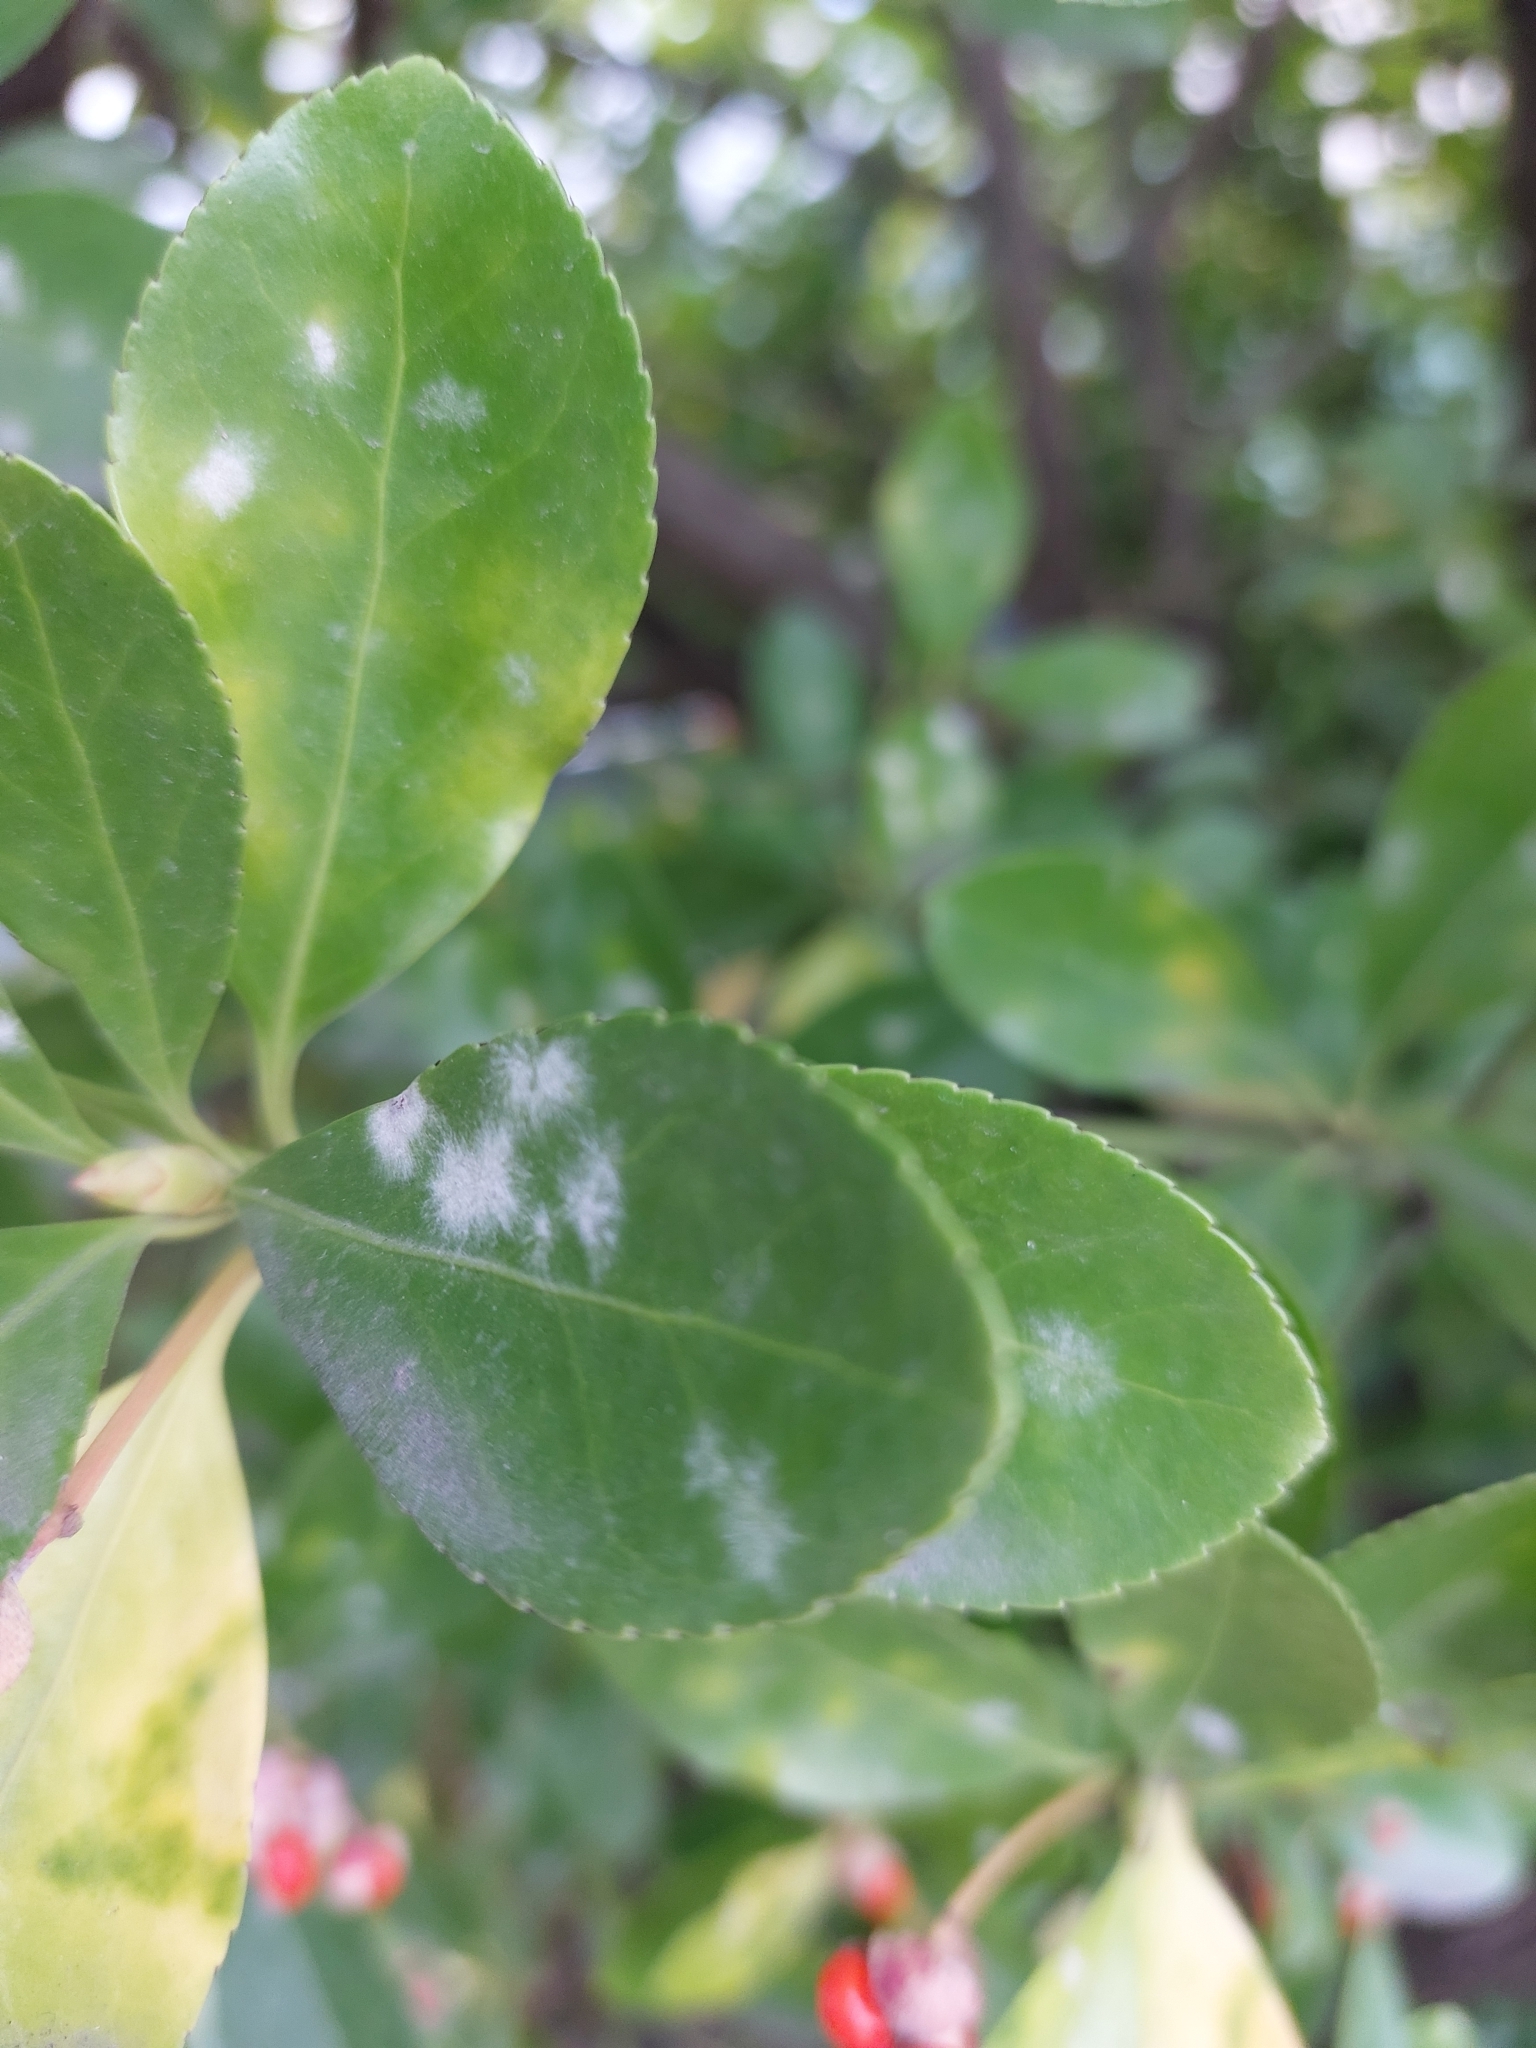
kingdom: Fungi
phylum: Ascomycota
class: Leotiomycetes
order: Helotiales
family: Erysiphaceae
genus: Erysiphe
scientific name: Erysiphe euonymicola
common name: Spindletree mildew
